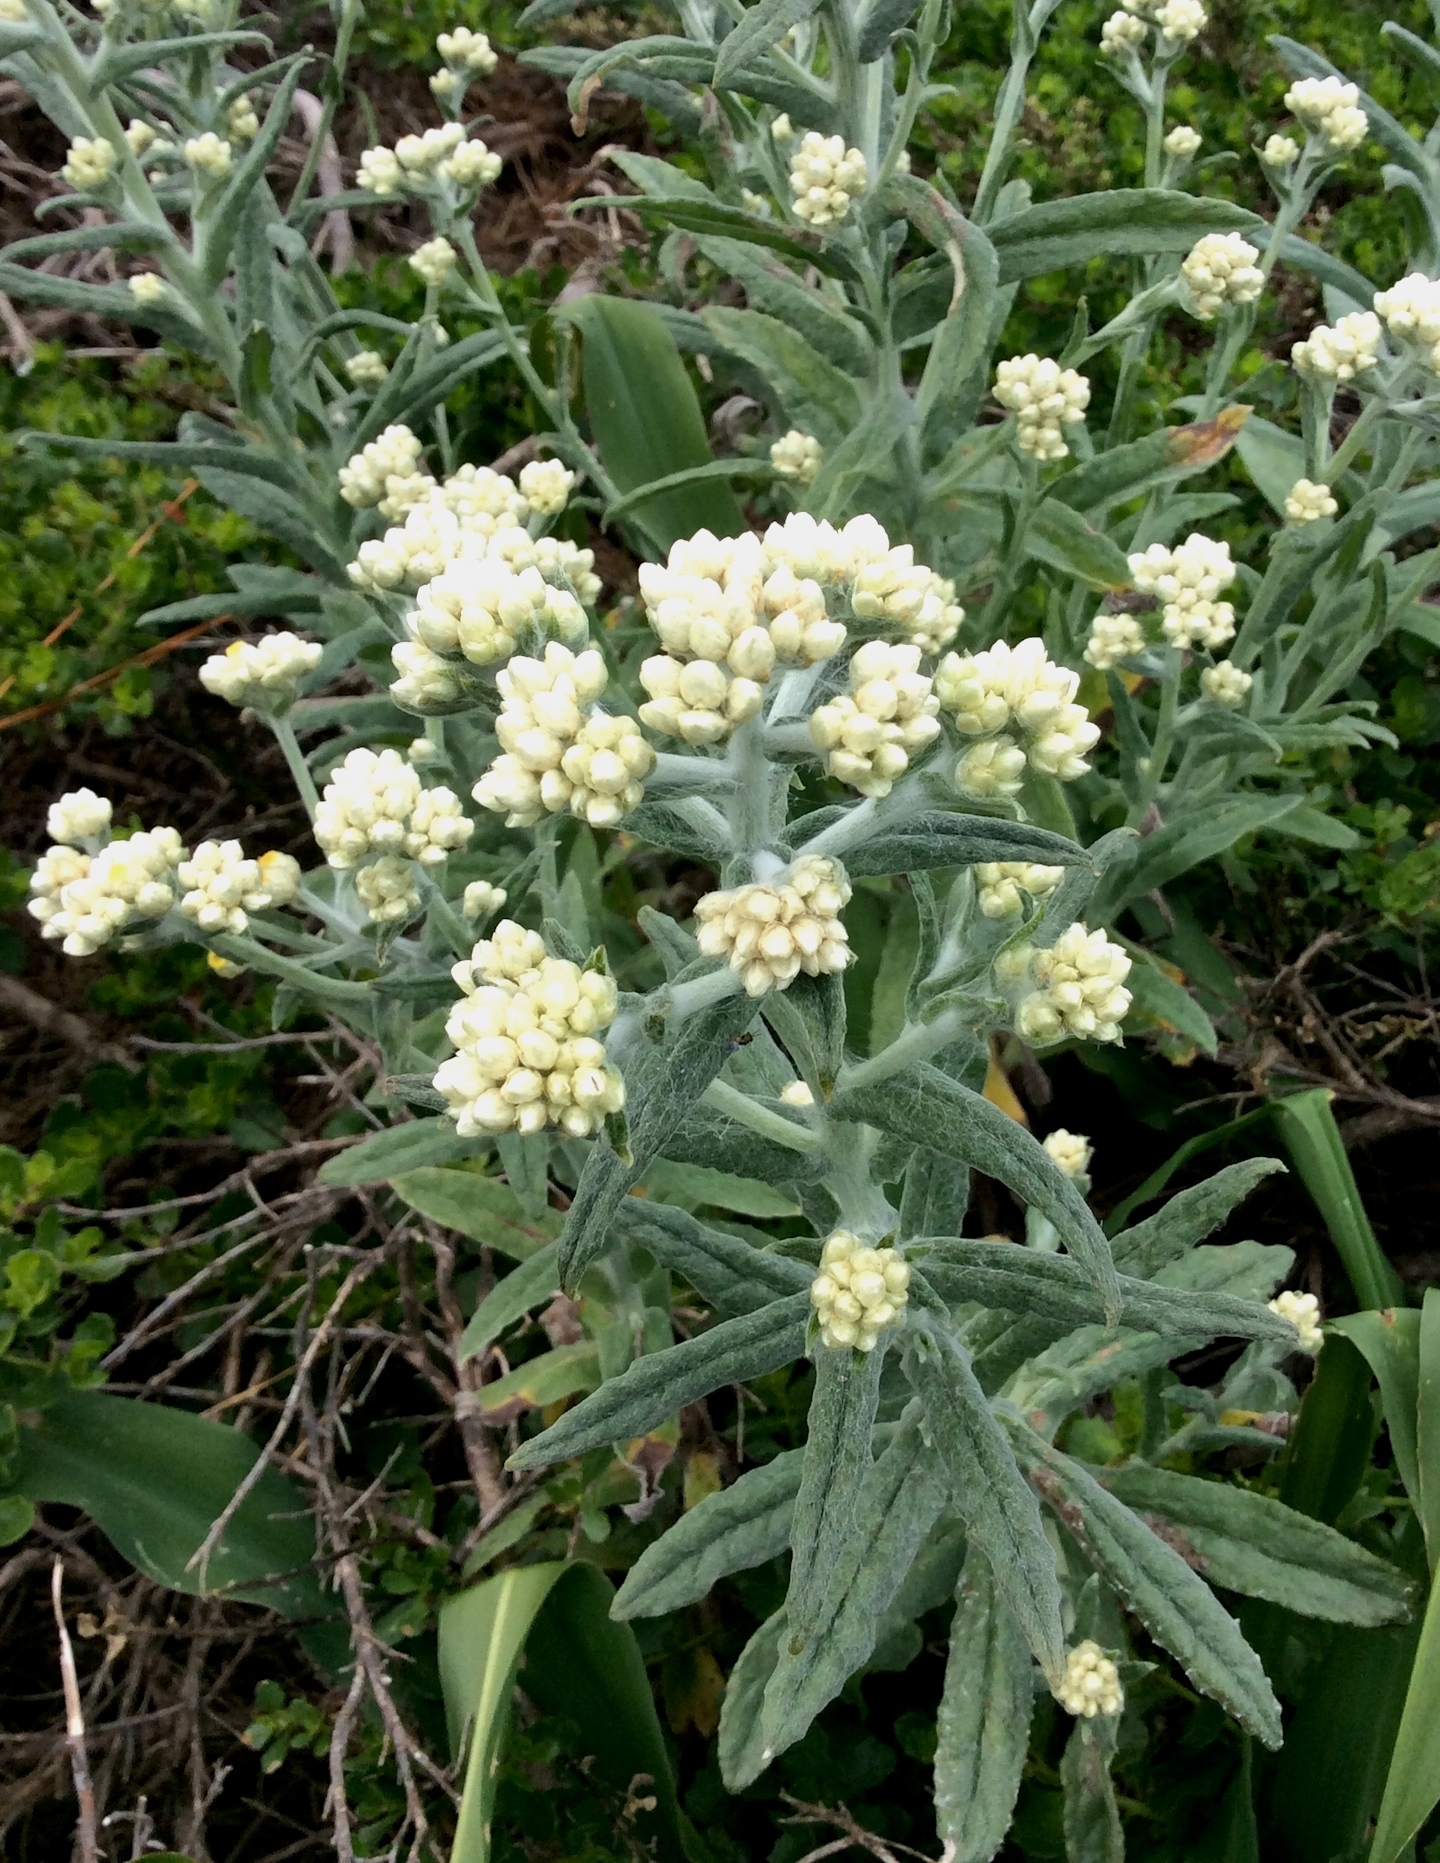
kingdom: Plantae
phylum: Tracheophyta
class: Magnoliopsida
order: Asterales
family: Asteraceae
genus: Pseudognaphalium
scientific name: Pseudognaphalium californicum
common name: California rabbit-tobacco
